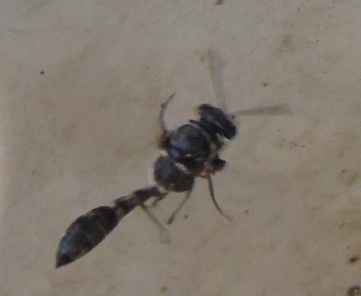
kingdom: Animalia
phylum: Arthropoda
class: Insecta
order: Hymenoptera
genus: Trypargilum
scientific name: Trypargilum
